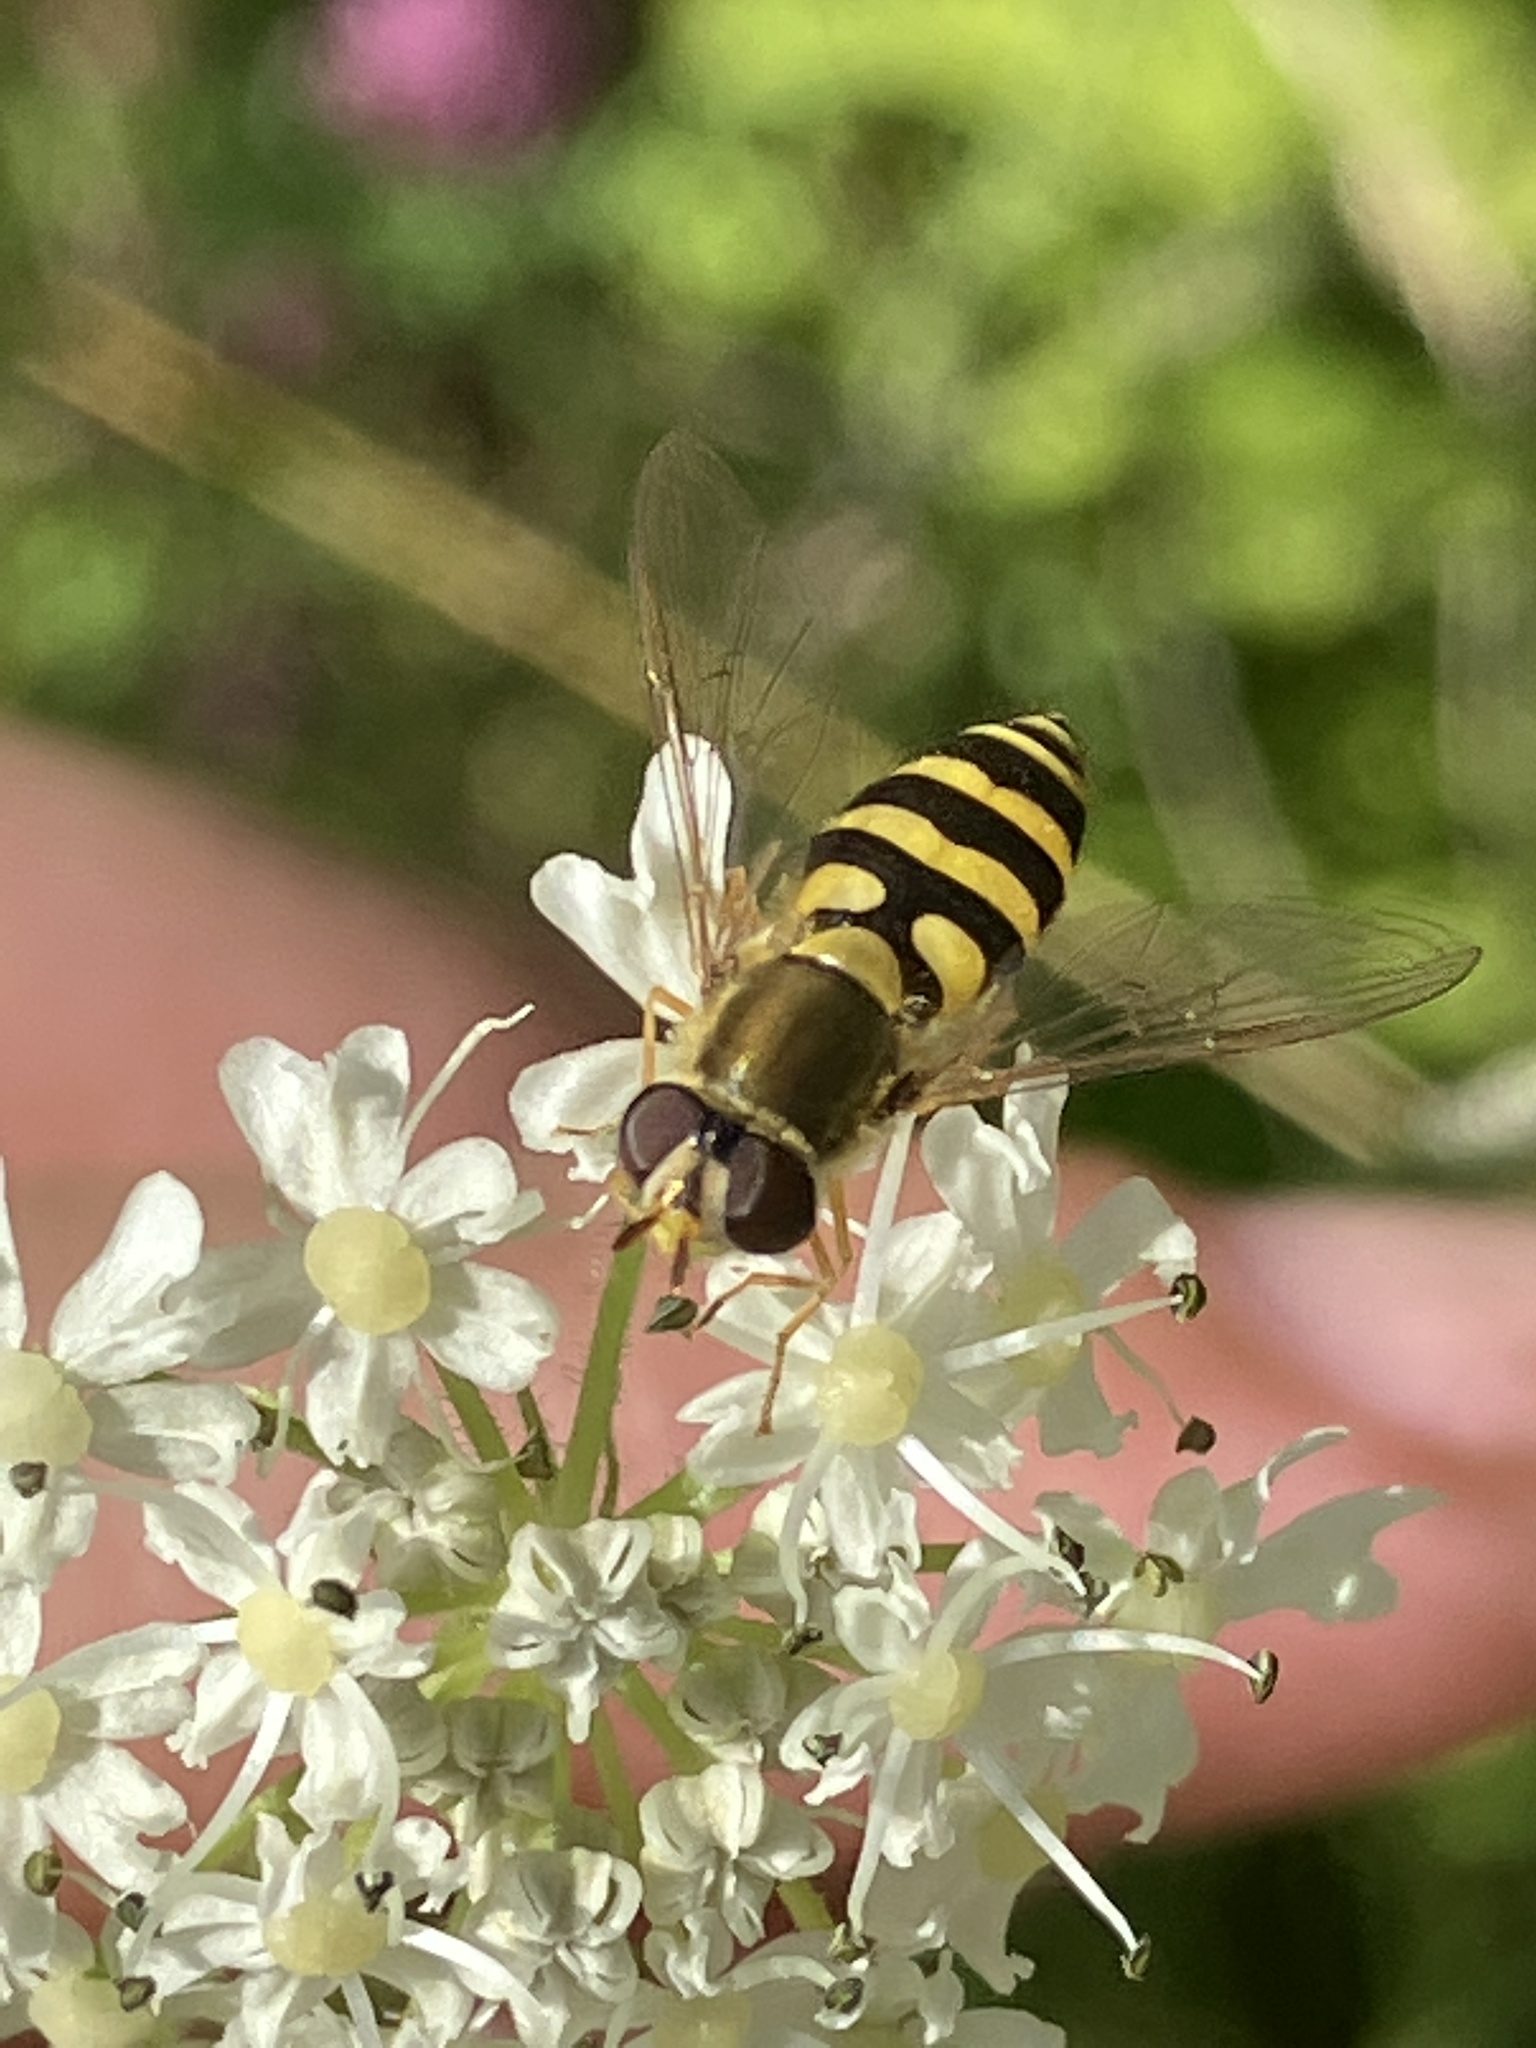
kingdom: Animalia
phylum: Arthropoda
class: Insecta
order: Diptera
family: Syrphidae
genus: Syrphus
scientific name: Syrphus
